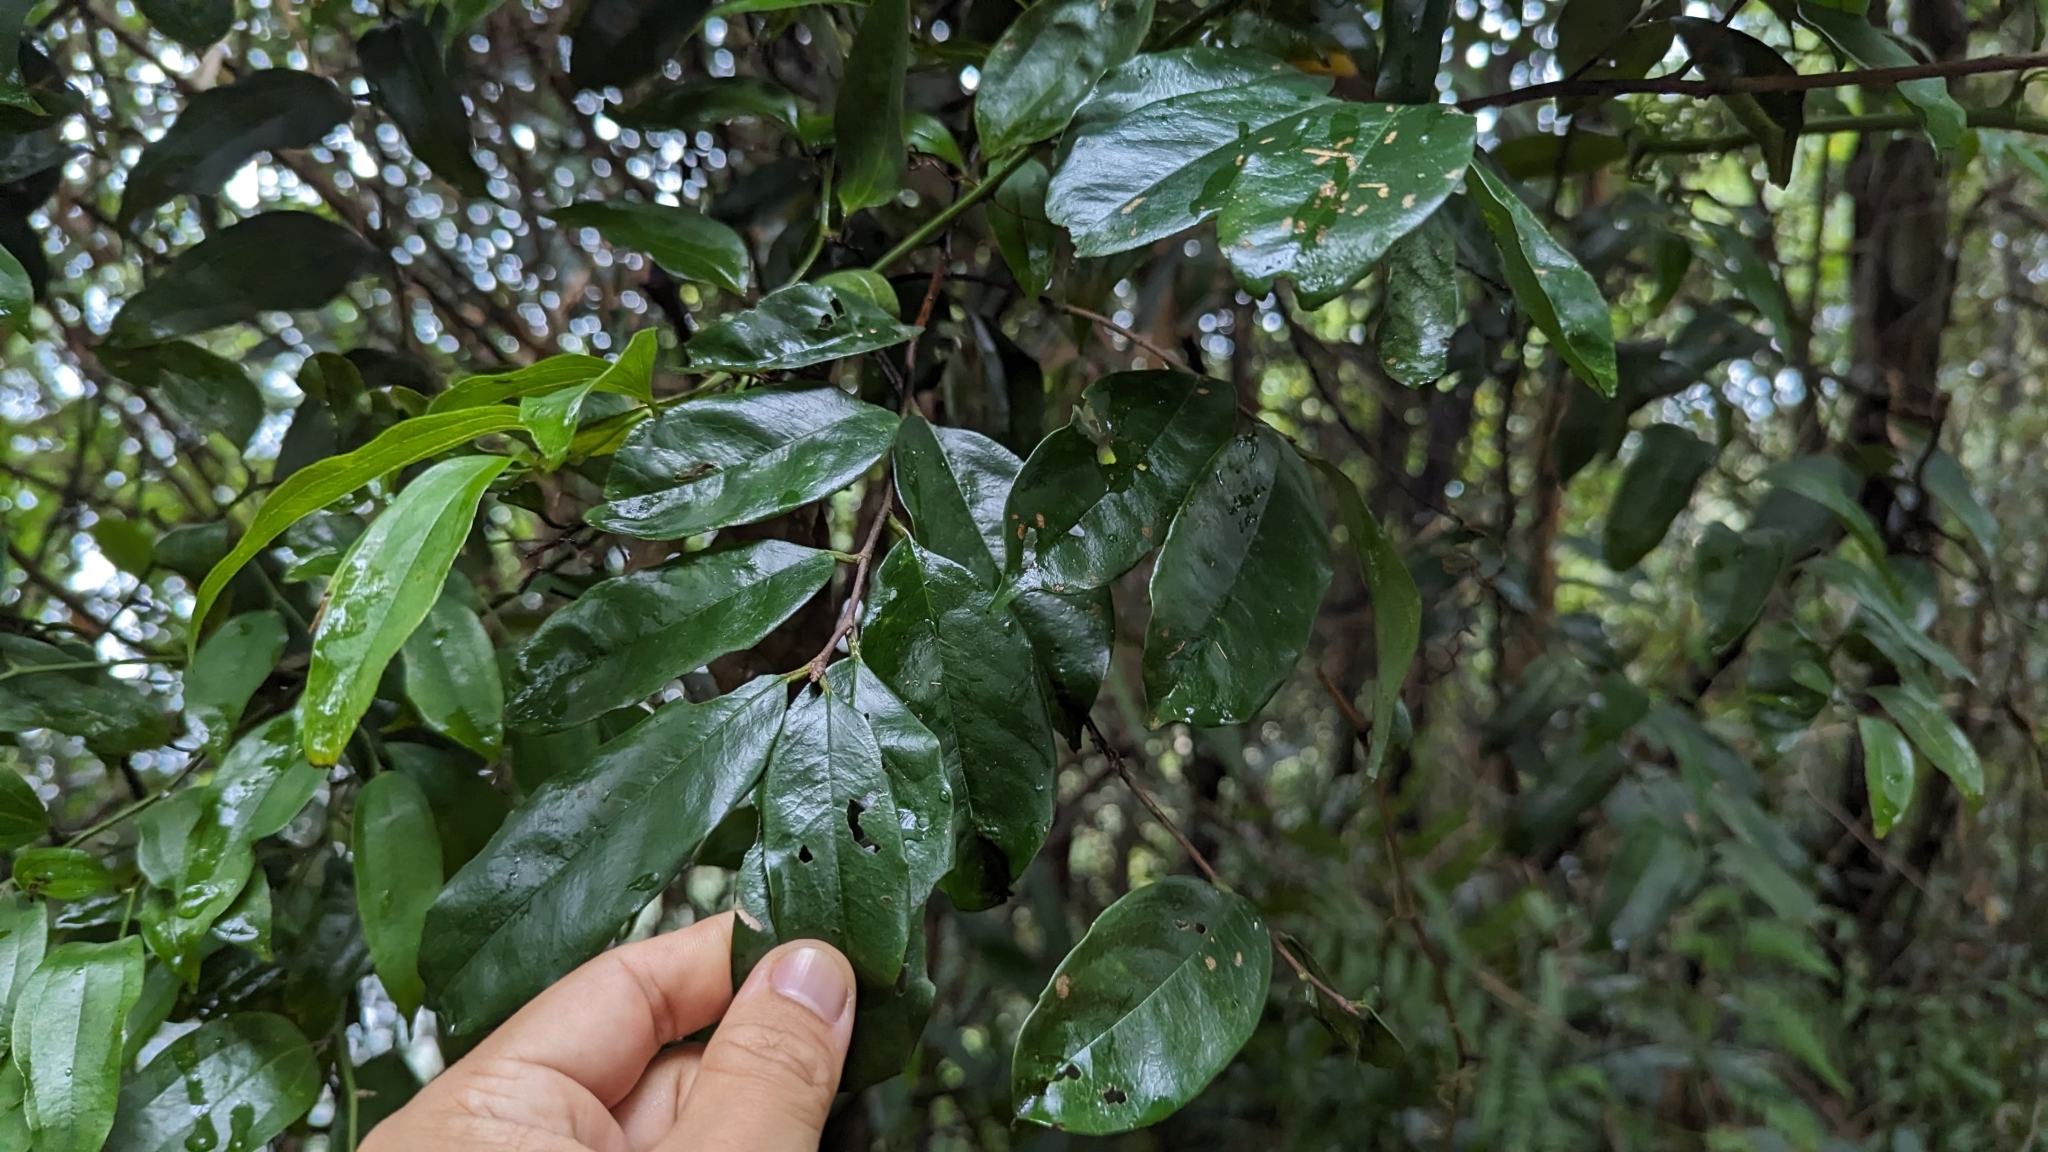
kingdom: Plantae
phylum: Tracheophyta
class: Magnoliopsida
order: Rosales
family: Rosaceae
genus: Prunus
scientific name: Prunus phaeosticta
